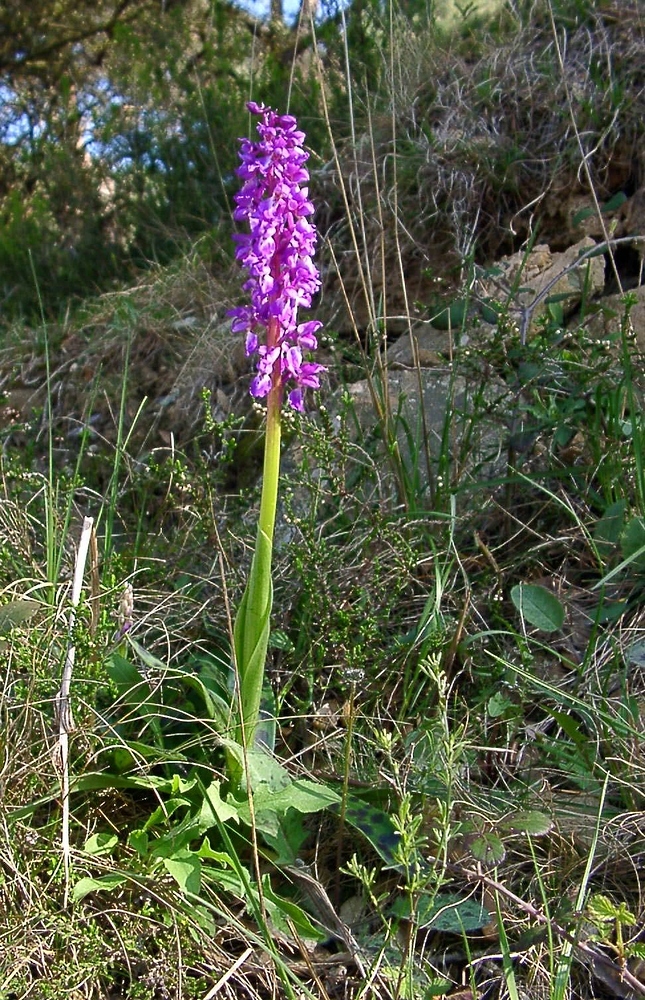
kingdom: Plantae
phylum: Tracheophyta
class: Liliopsida
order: Asparagales
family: Orchidaceae
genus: Orchis
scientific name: Orchis mascula
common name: Early-purple orchid
